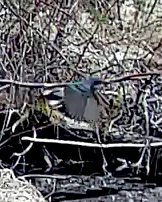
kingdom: Animalia
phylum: Chordata
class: Aves
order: Passeriformes
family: Parulidae
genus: Setophaga
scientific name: Setophaga coronata
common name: Myrtle warbler
